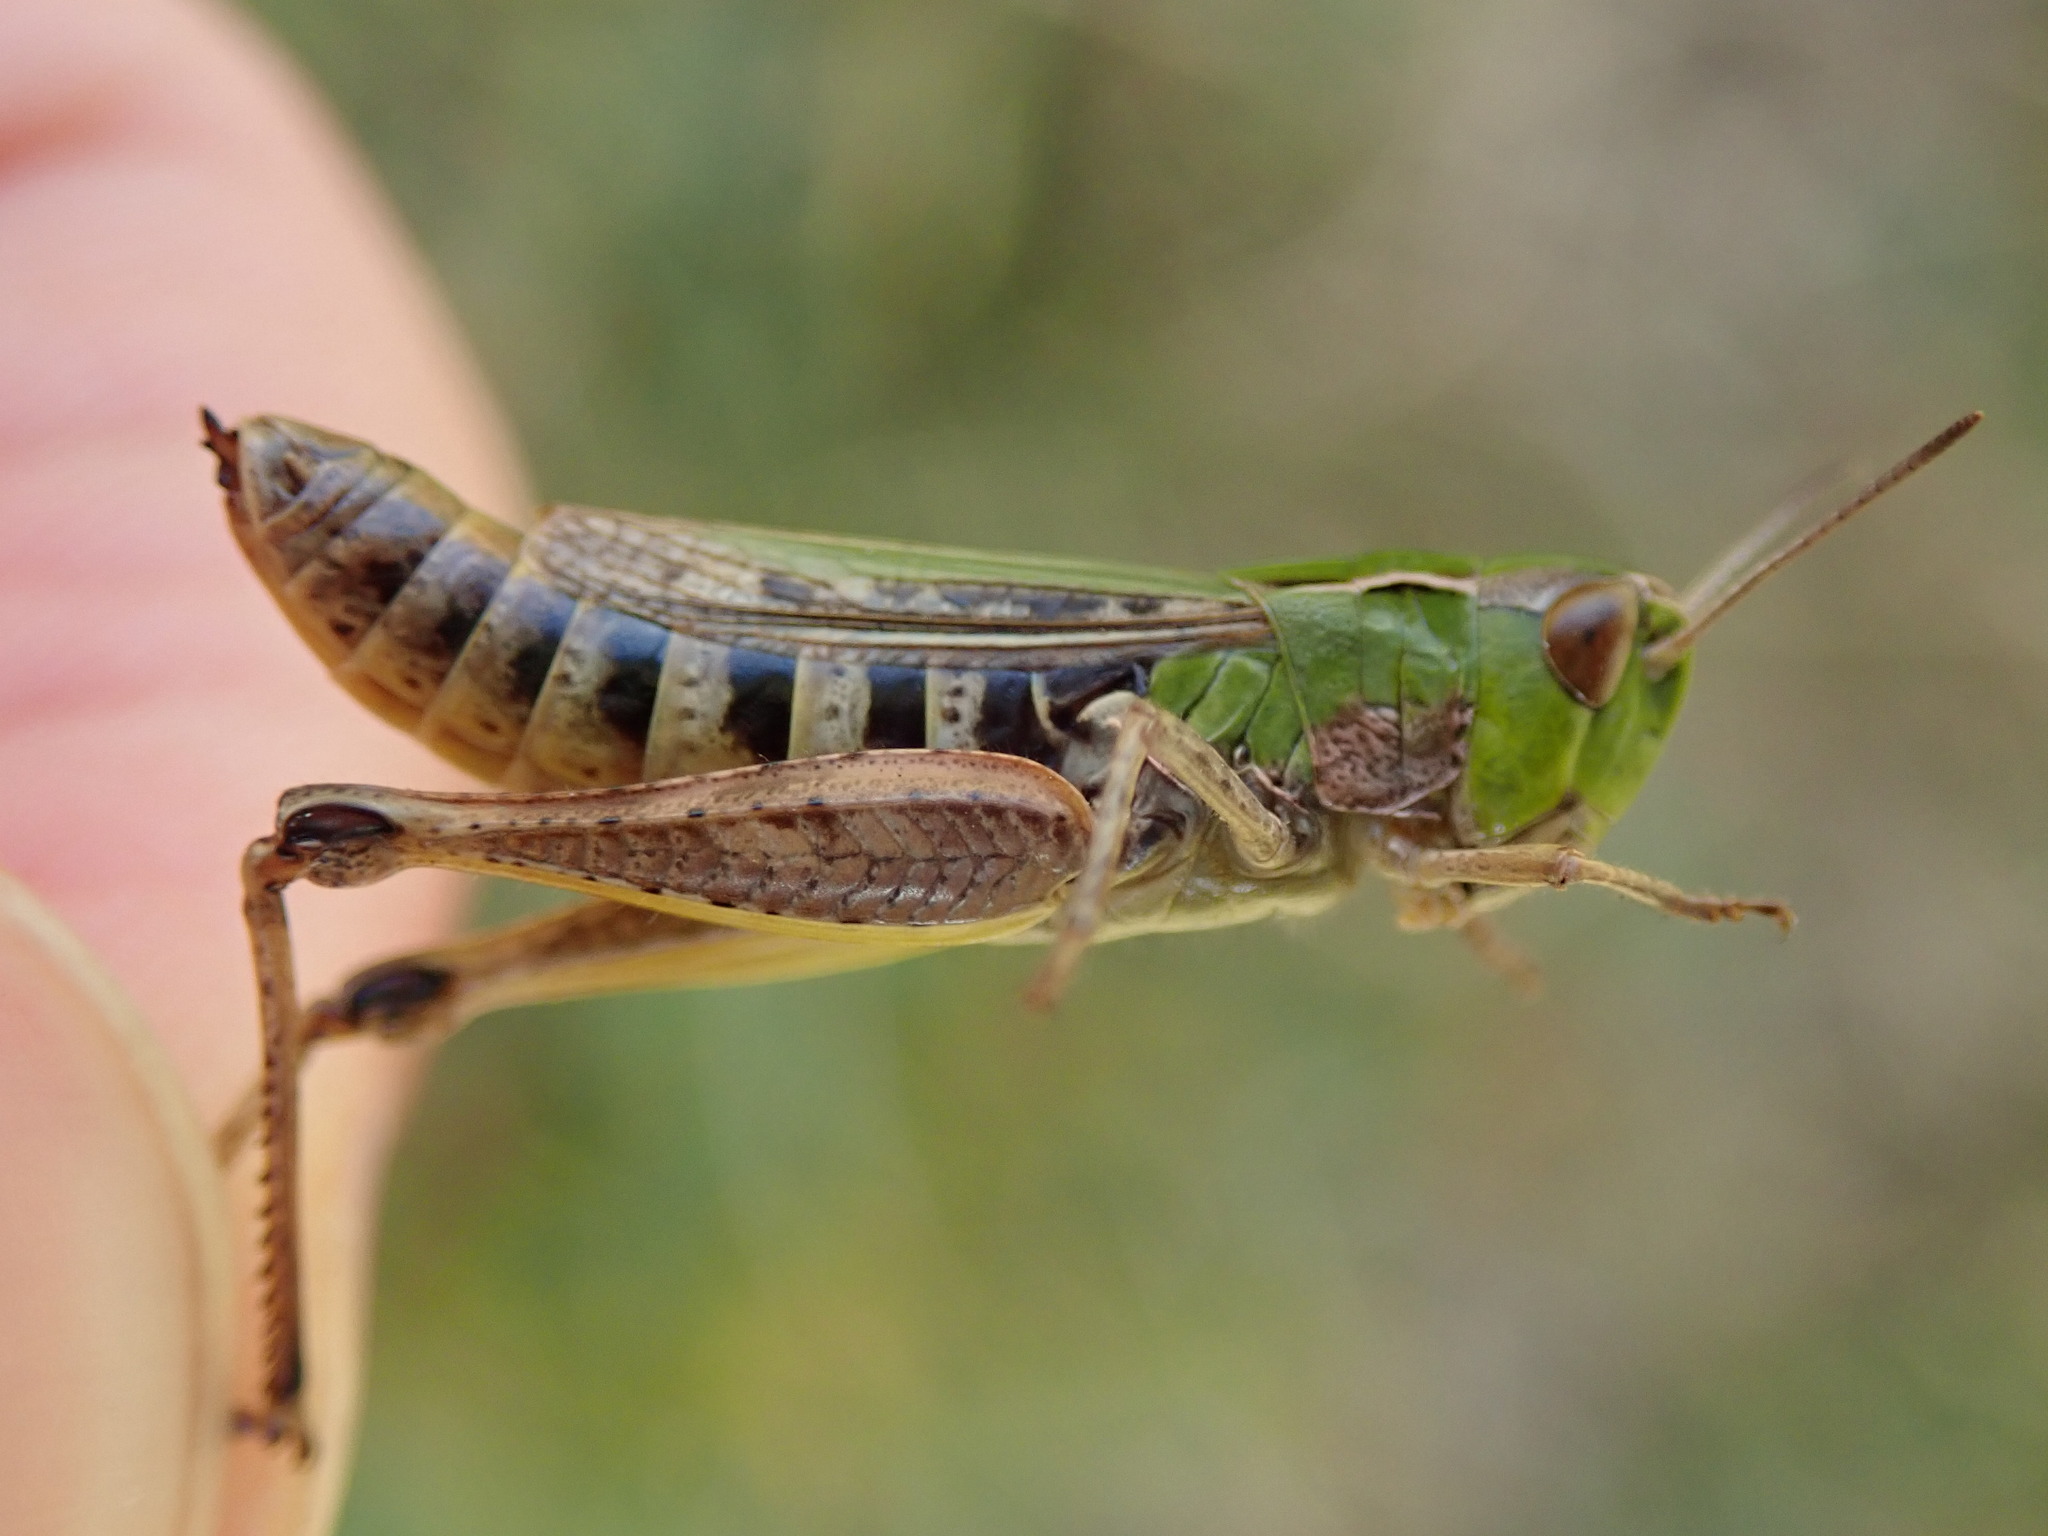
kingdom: Animalia
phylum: Arthropoda
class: Insecta
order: Orthoptera
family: Acrididae
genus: Stenobothrus
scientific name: Stenobothrus nigromaculatus
